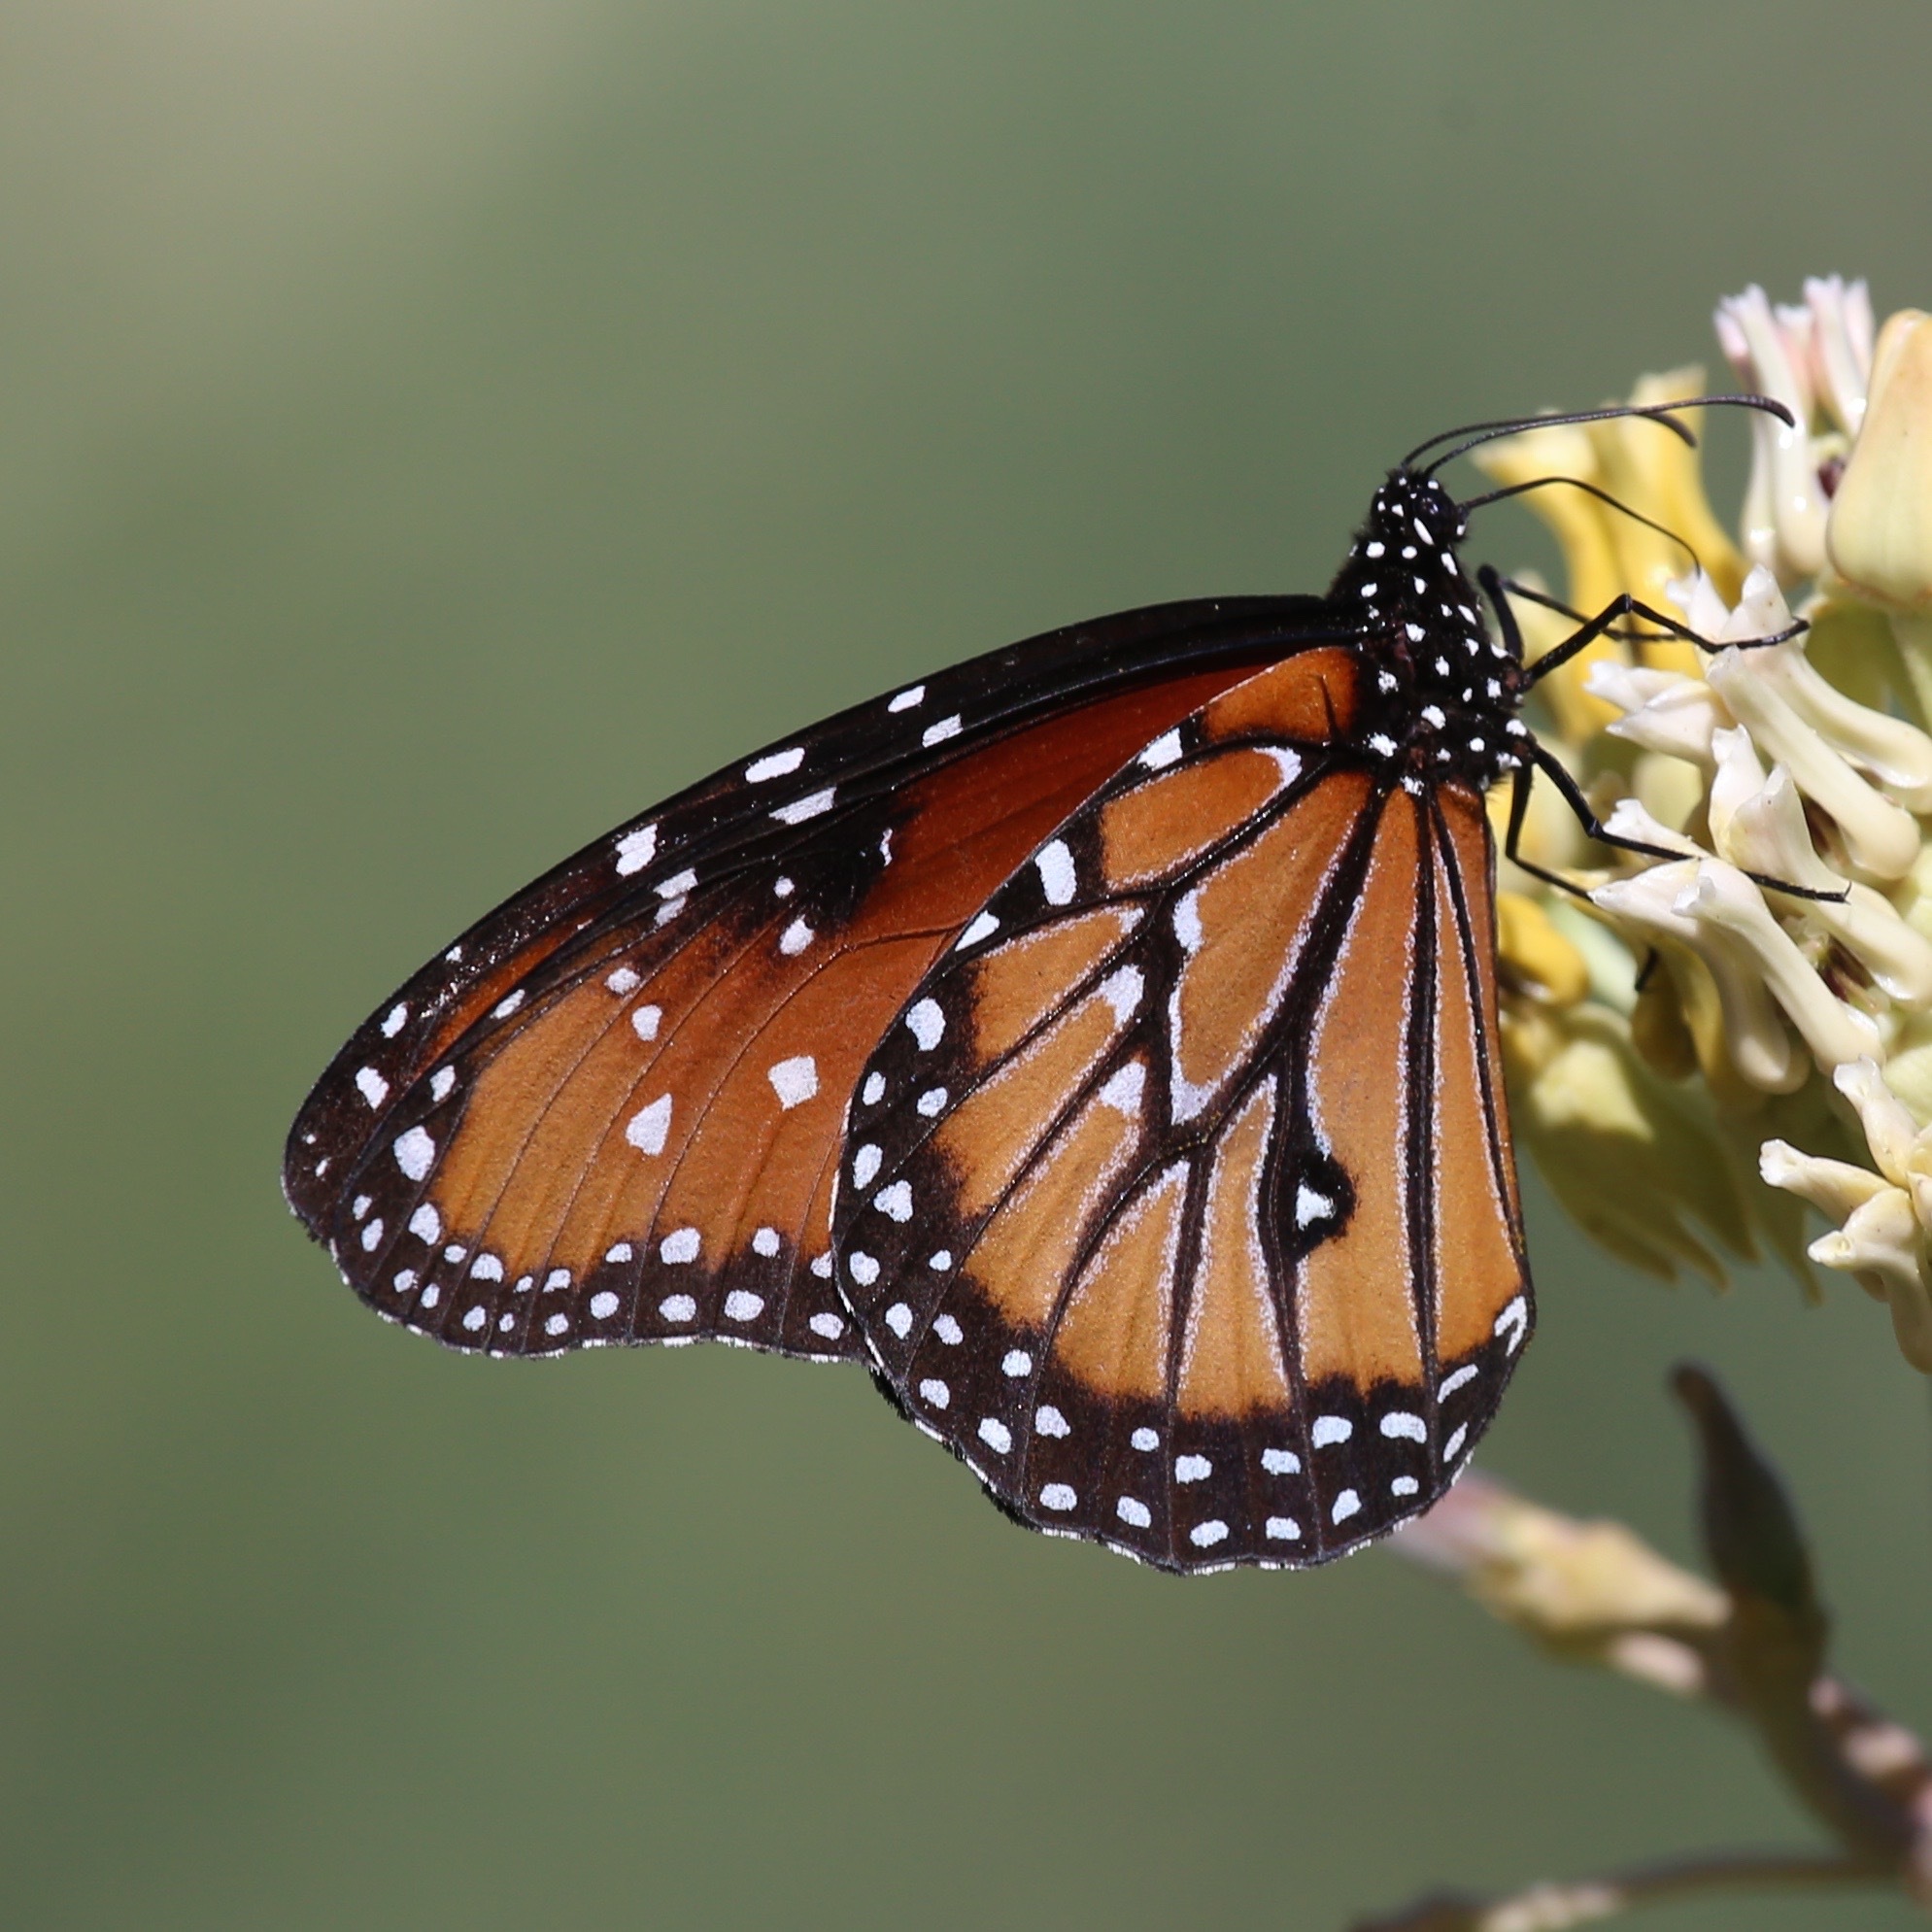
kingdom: Animalia
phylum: Arthropoda
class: Insecta
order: Lepidoptera
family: Nymphalidae
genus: Danaus
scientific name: Danaus gilippus
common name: Queen
